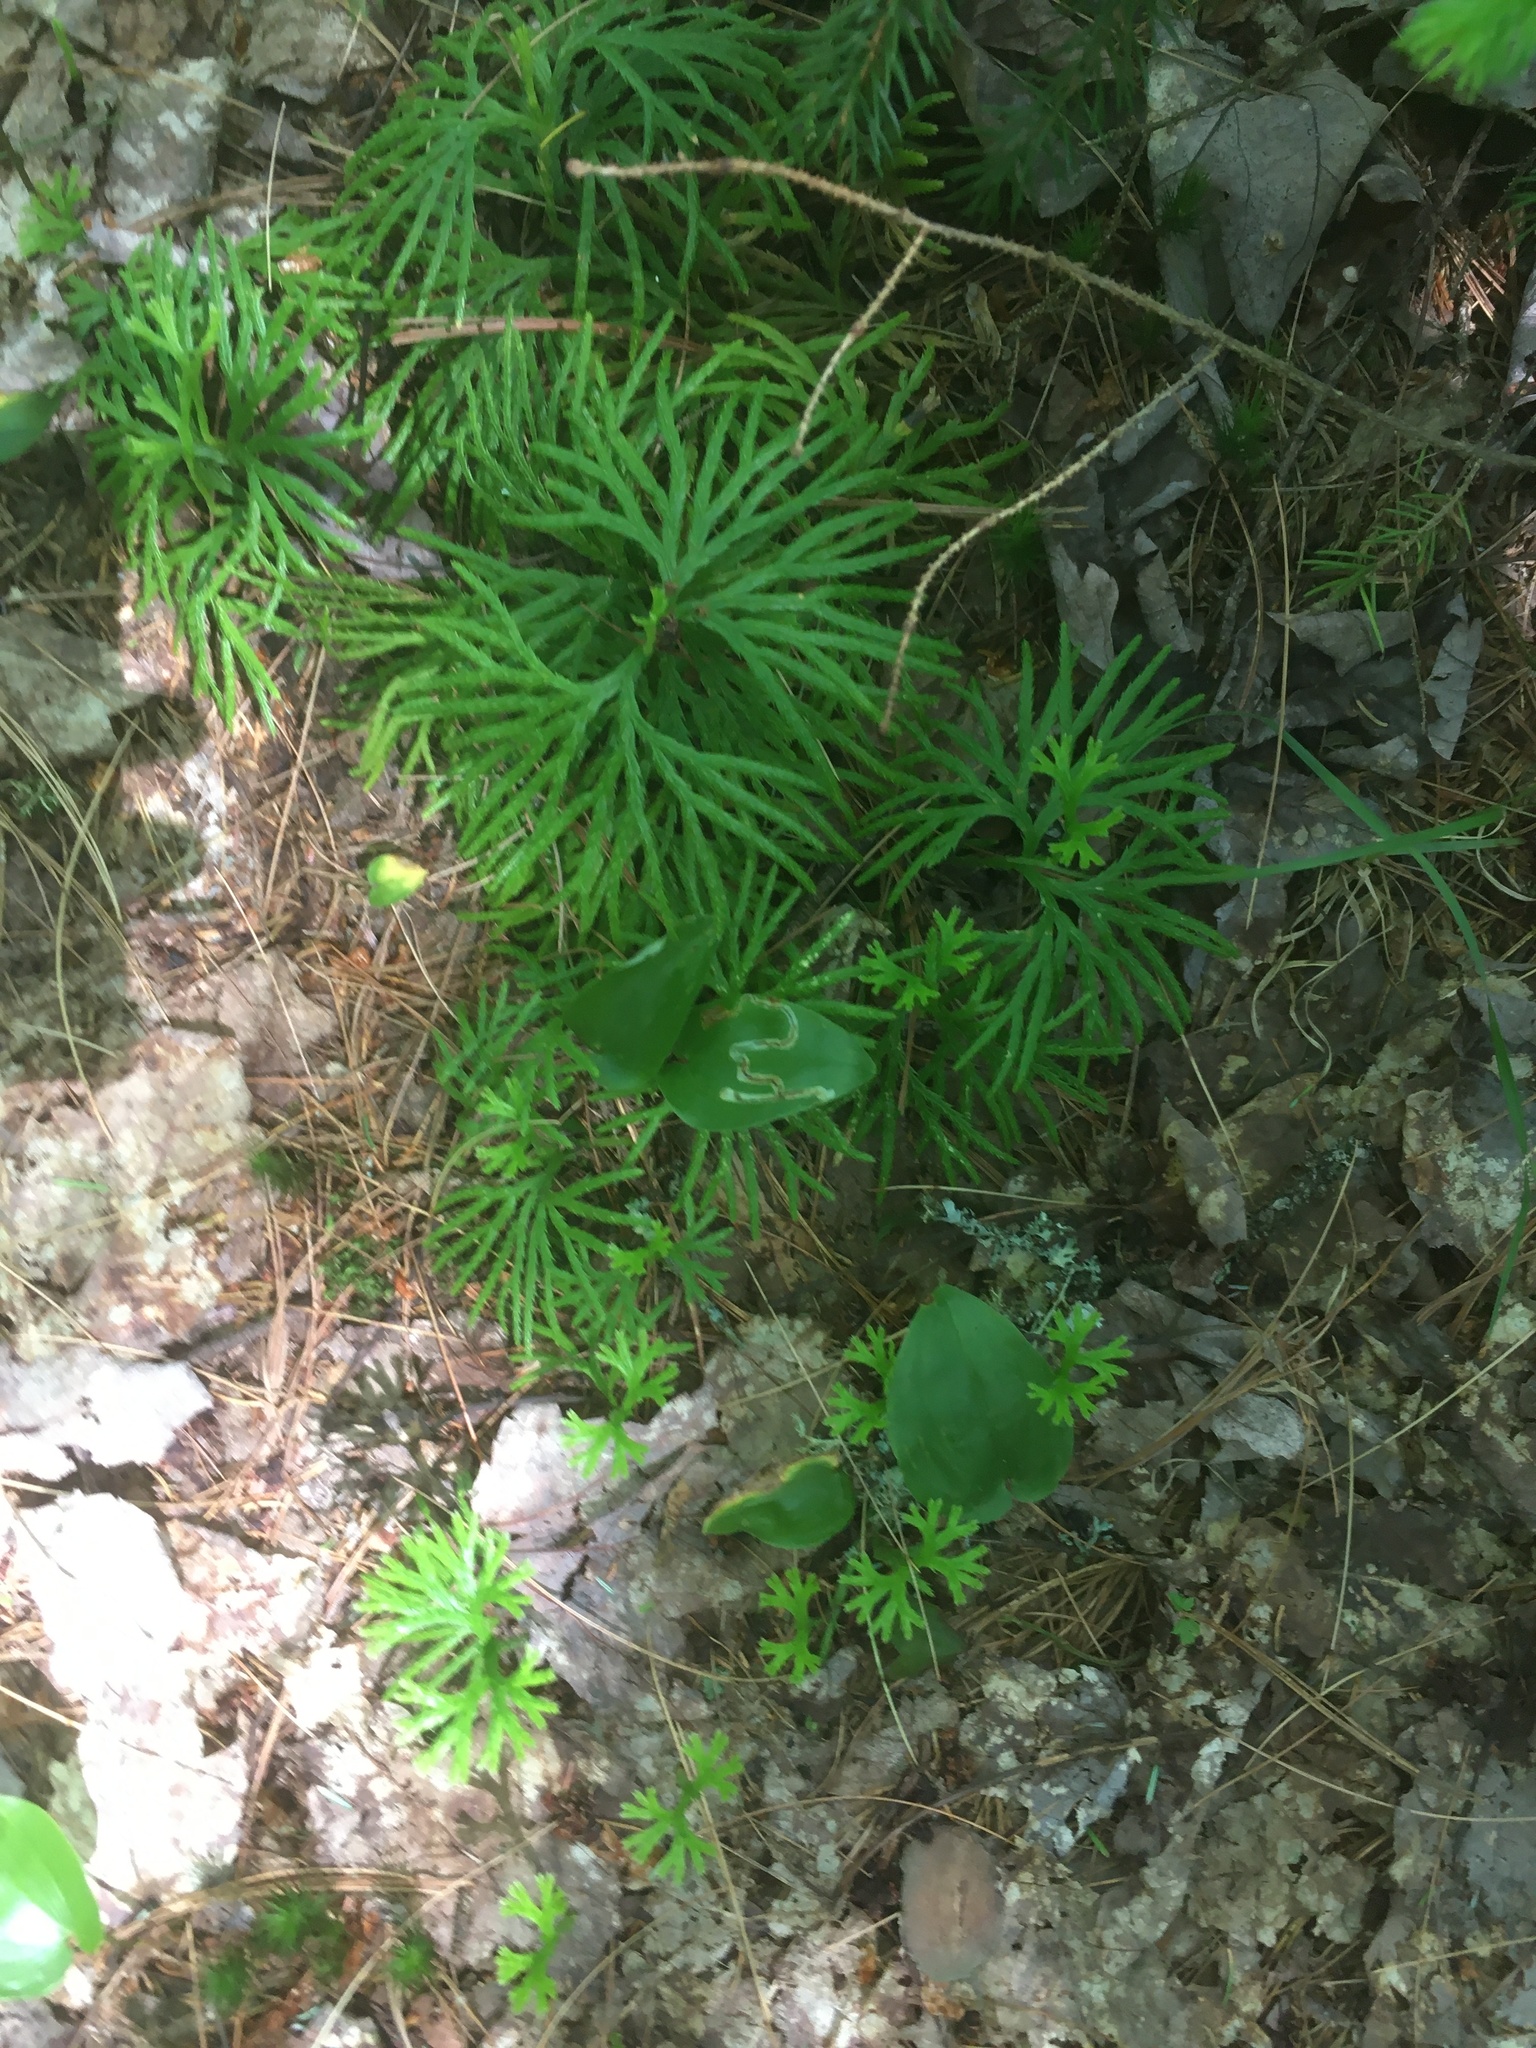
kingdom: Plantae
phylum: Tracheophyta
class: Lycopodiopsida
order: Lycopodiales
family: Lycopodiaceae
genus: Diphasiastrum
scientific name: Diphasiastrum digitatum
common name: Southern running-pine
